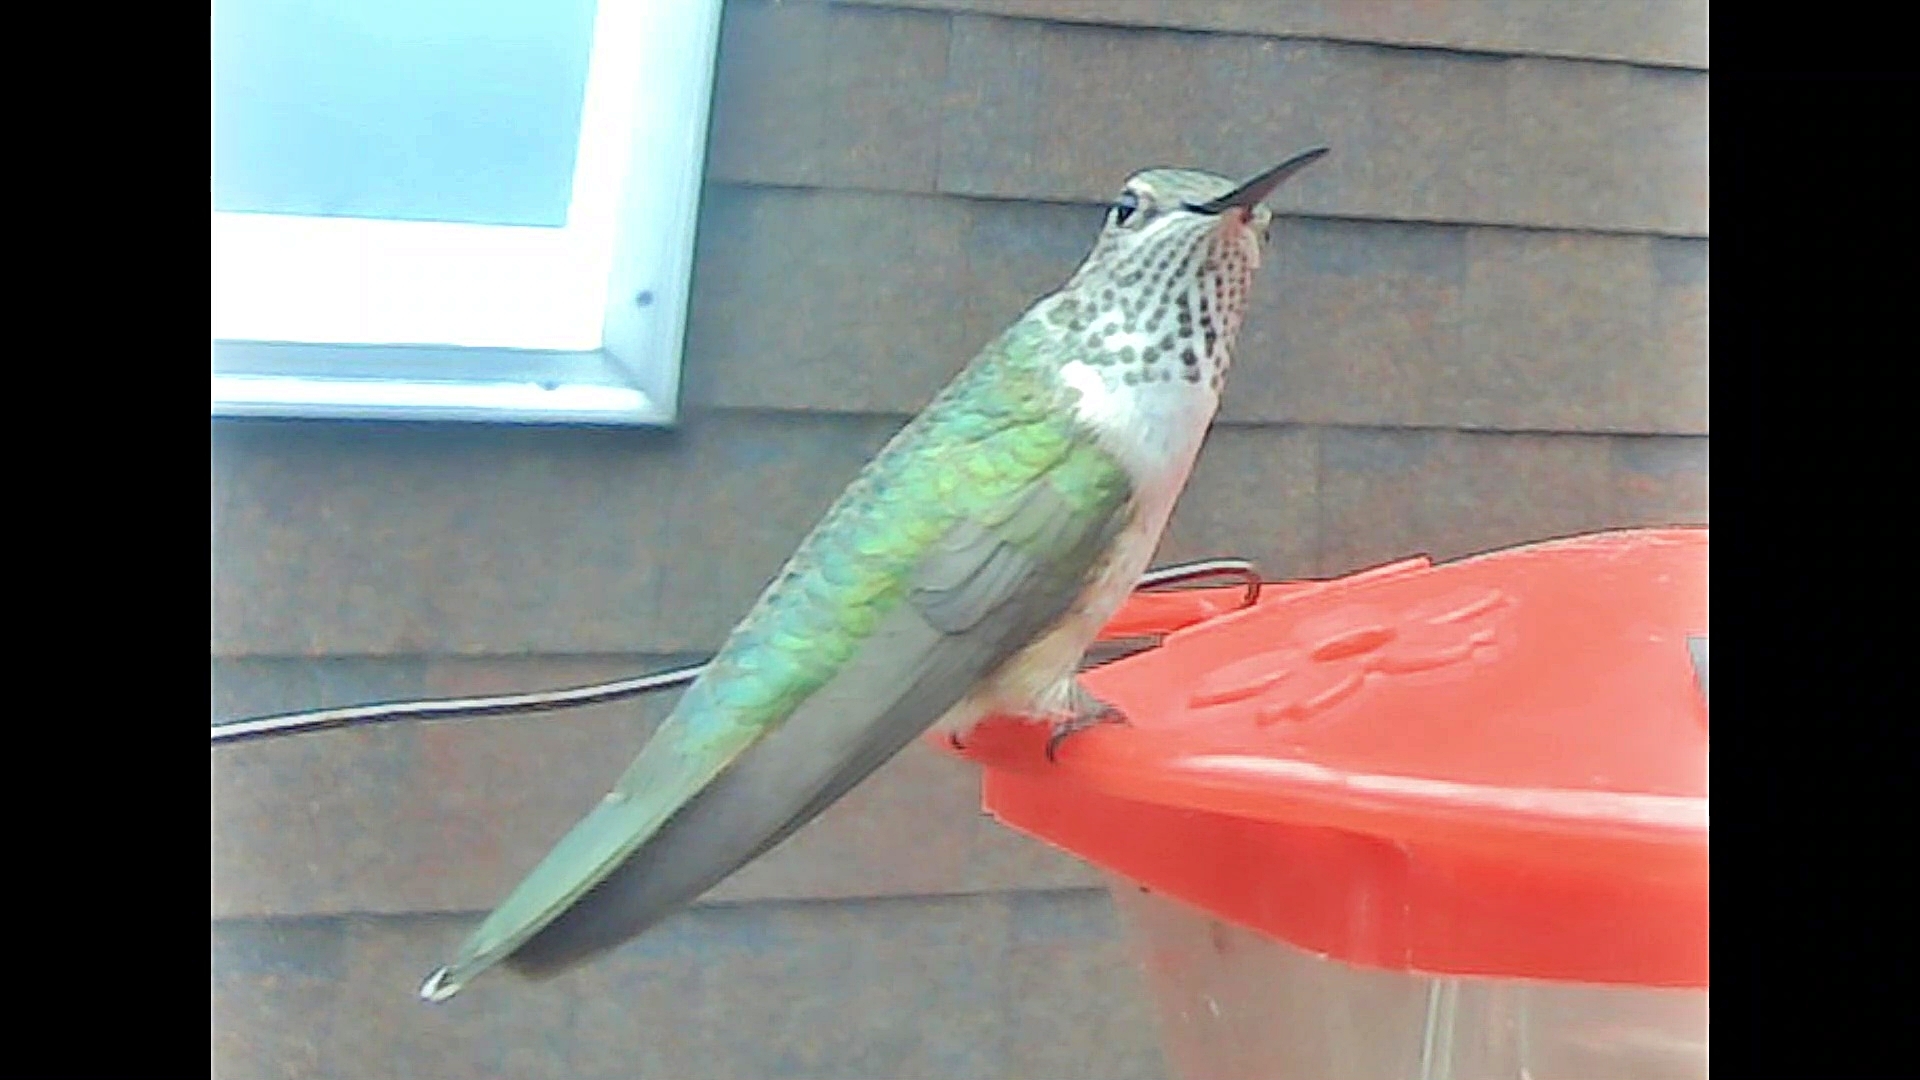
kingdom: Animalia
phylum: Chordata
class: Aves
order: Apodiformes
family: Trochilidae
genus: Selasphorus
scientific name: Selasphorus platycercus
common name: Broad-tailed hummingbird
